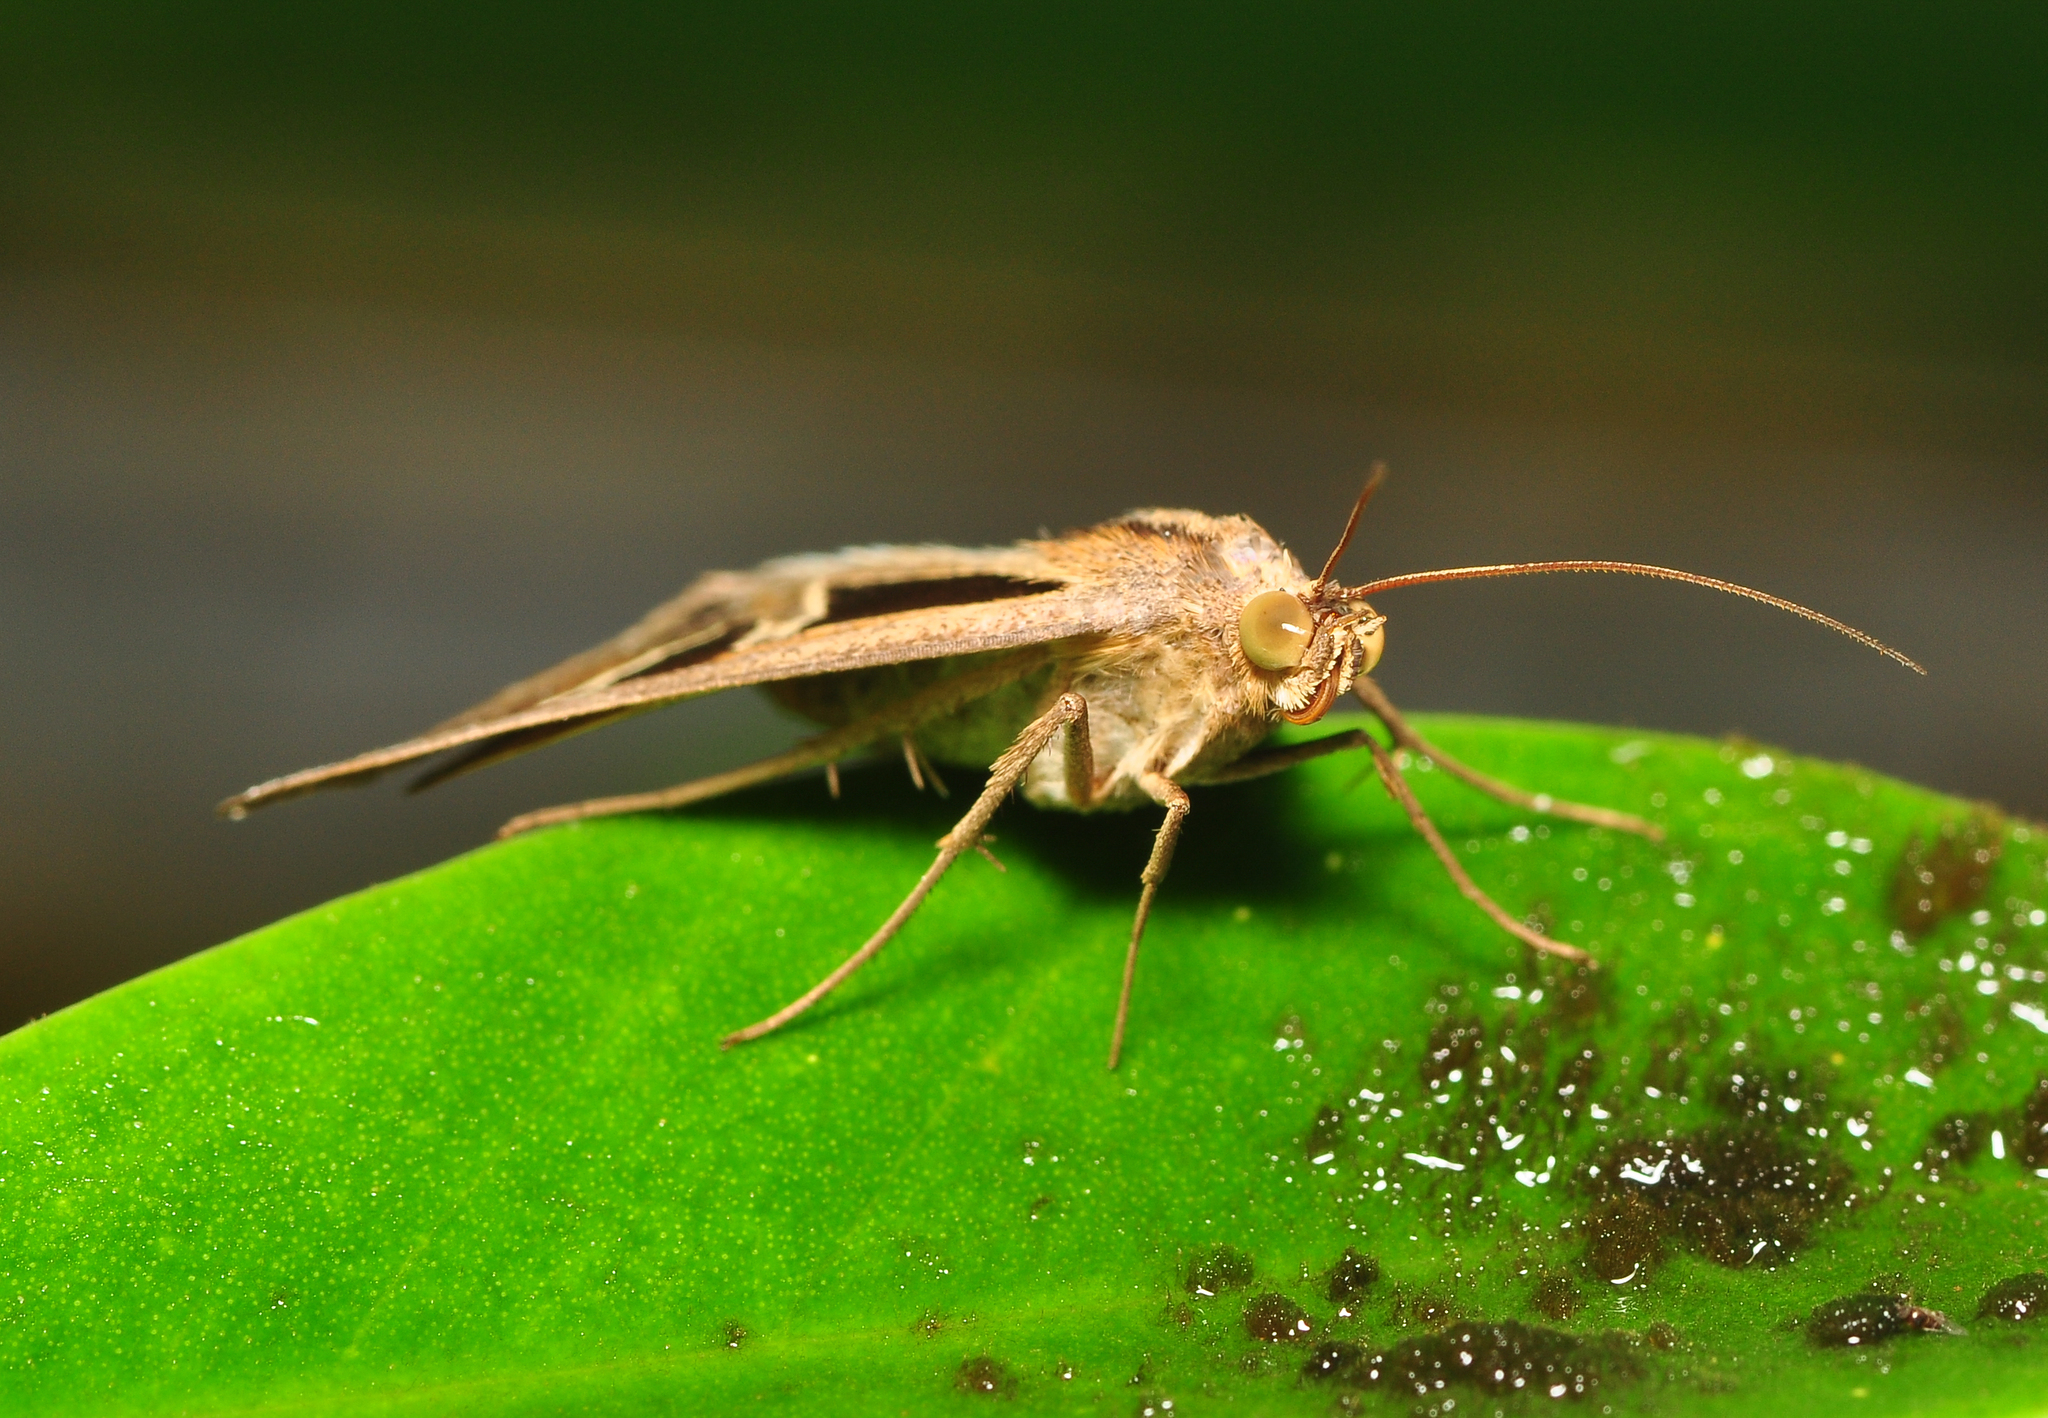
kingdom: Animalia
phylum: Arthropoda
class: Insecta
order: Lepidoptera
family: Erebidae
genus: Trigonodes
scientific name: Trigonodes hyppasia
